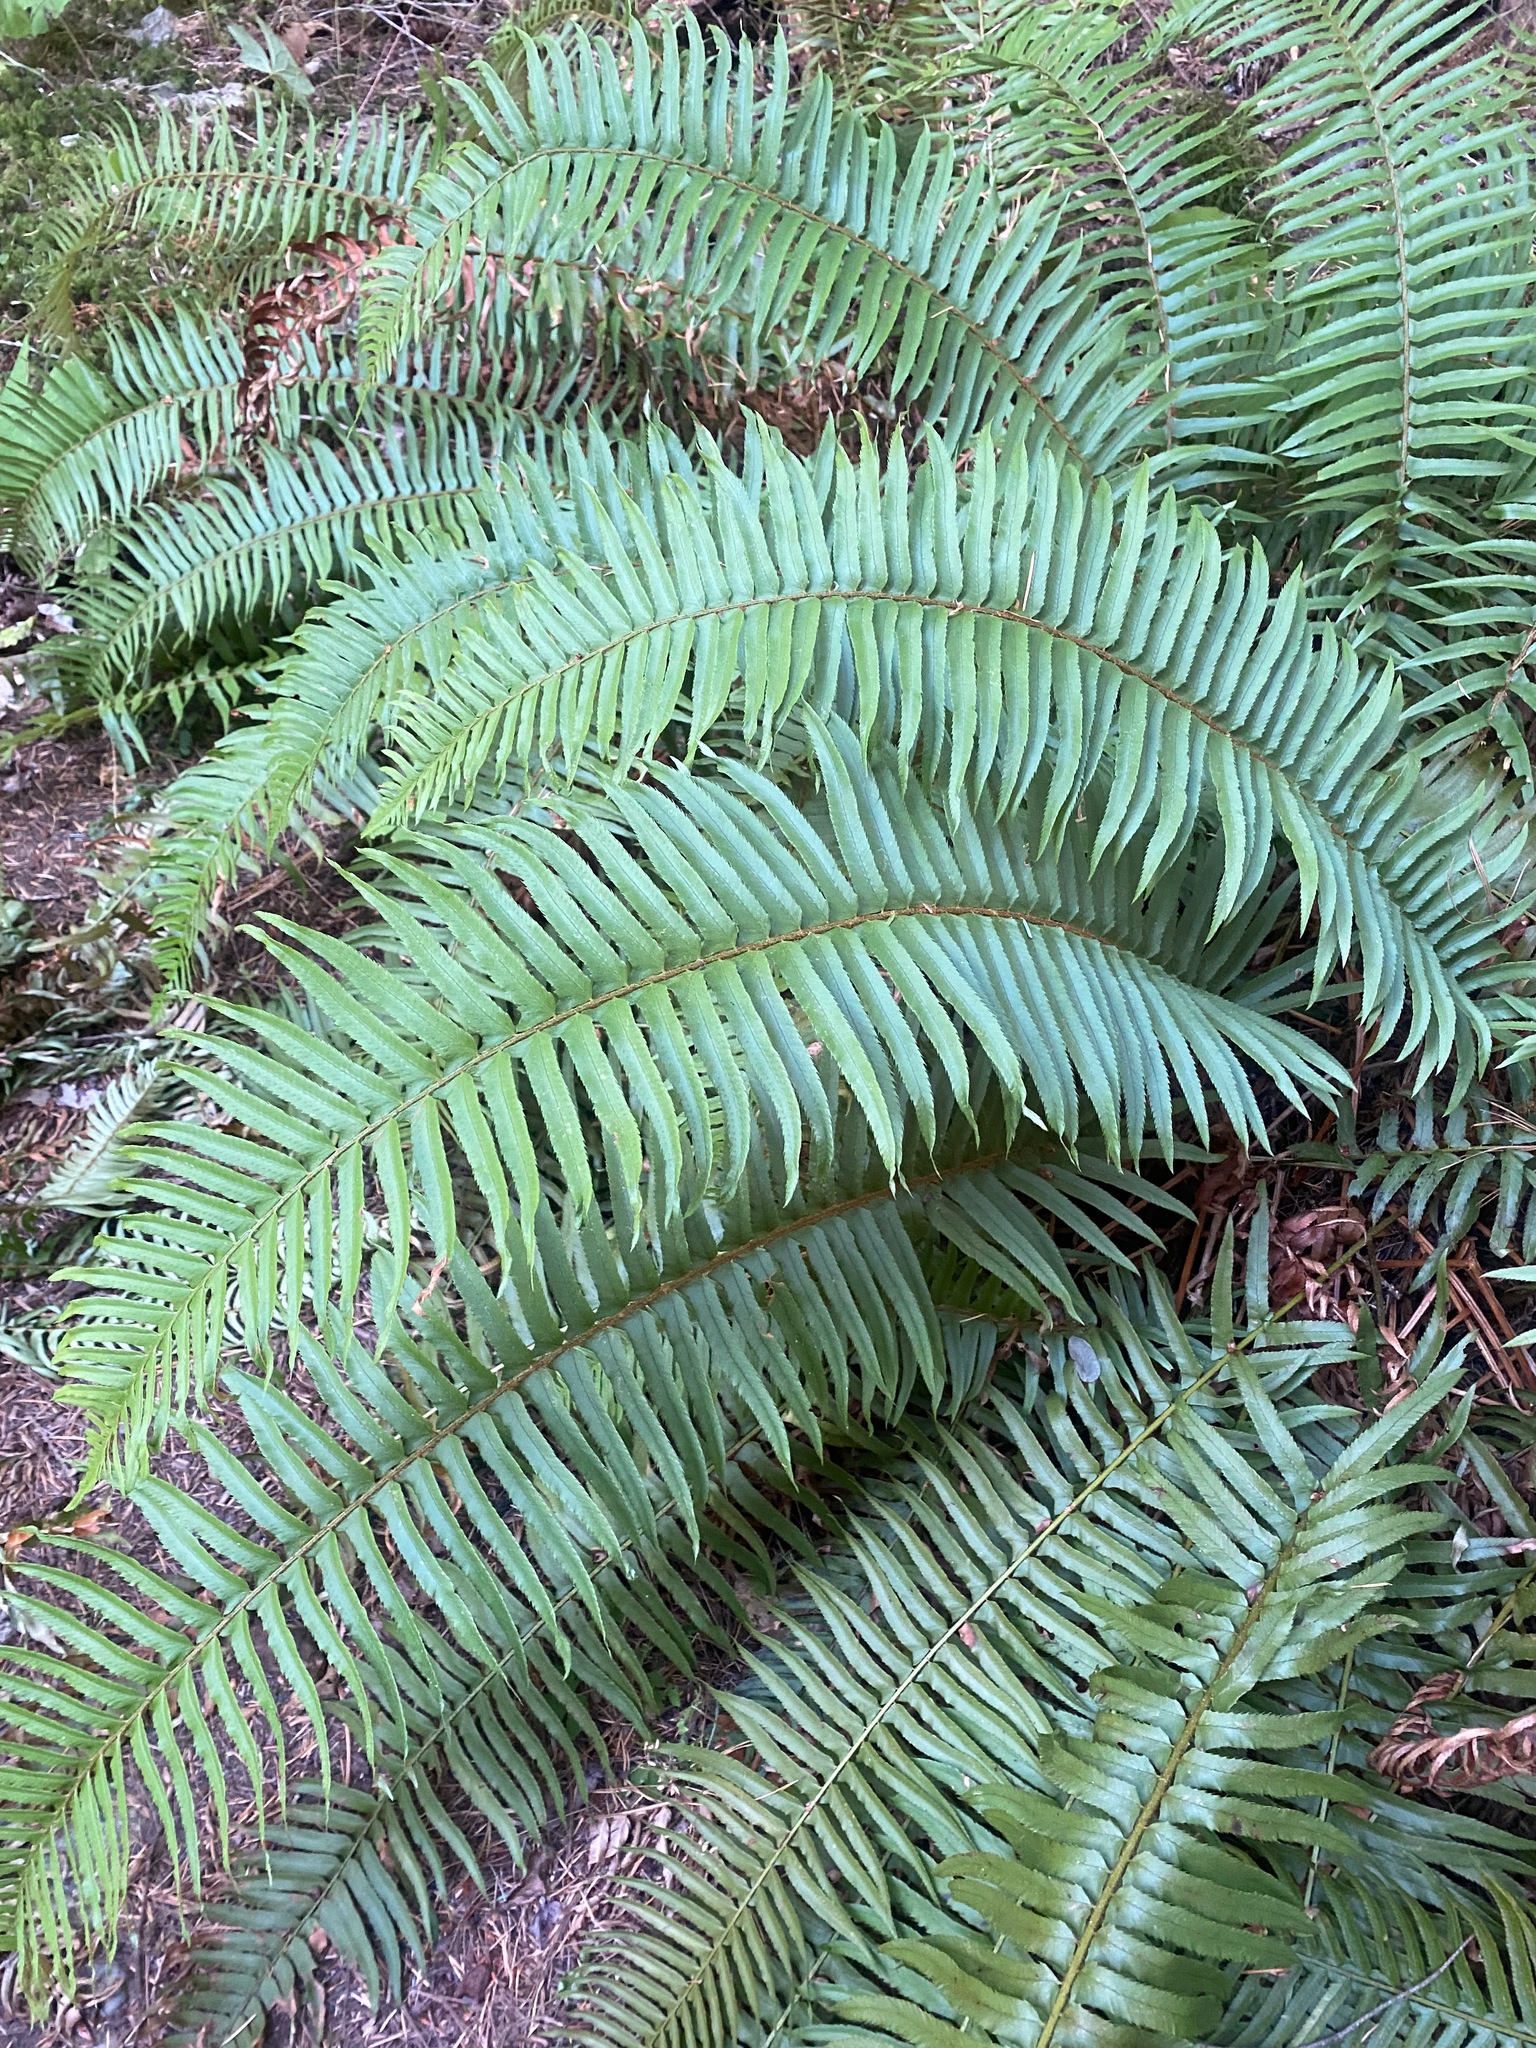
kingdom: Plantae
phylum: Tracheophyta
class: Polypodiopsida
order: Polypodiales
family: Dryopteridaceae
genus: Polystichum
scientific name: Polystichum munitum
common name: Western sword-fern
